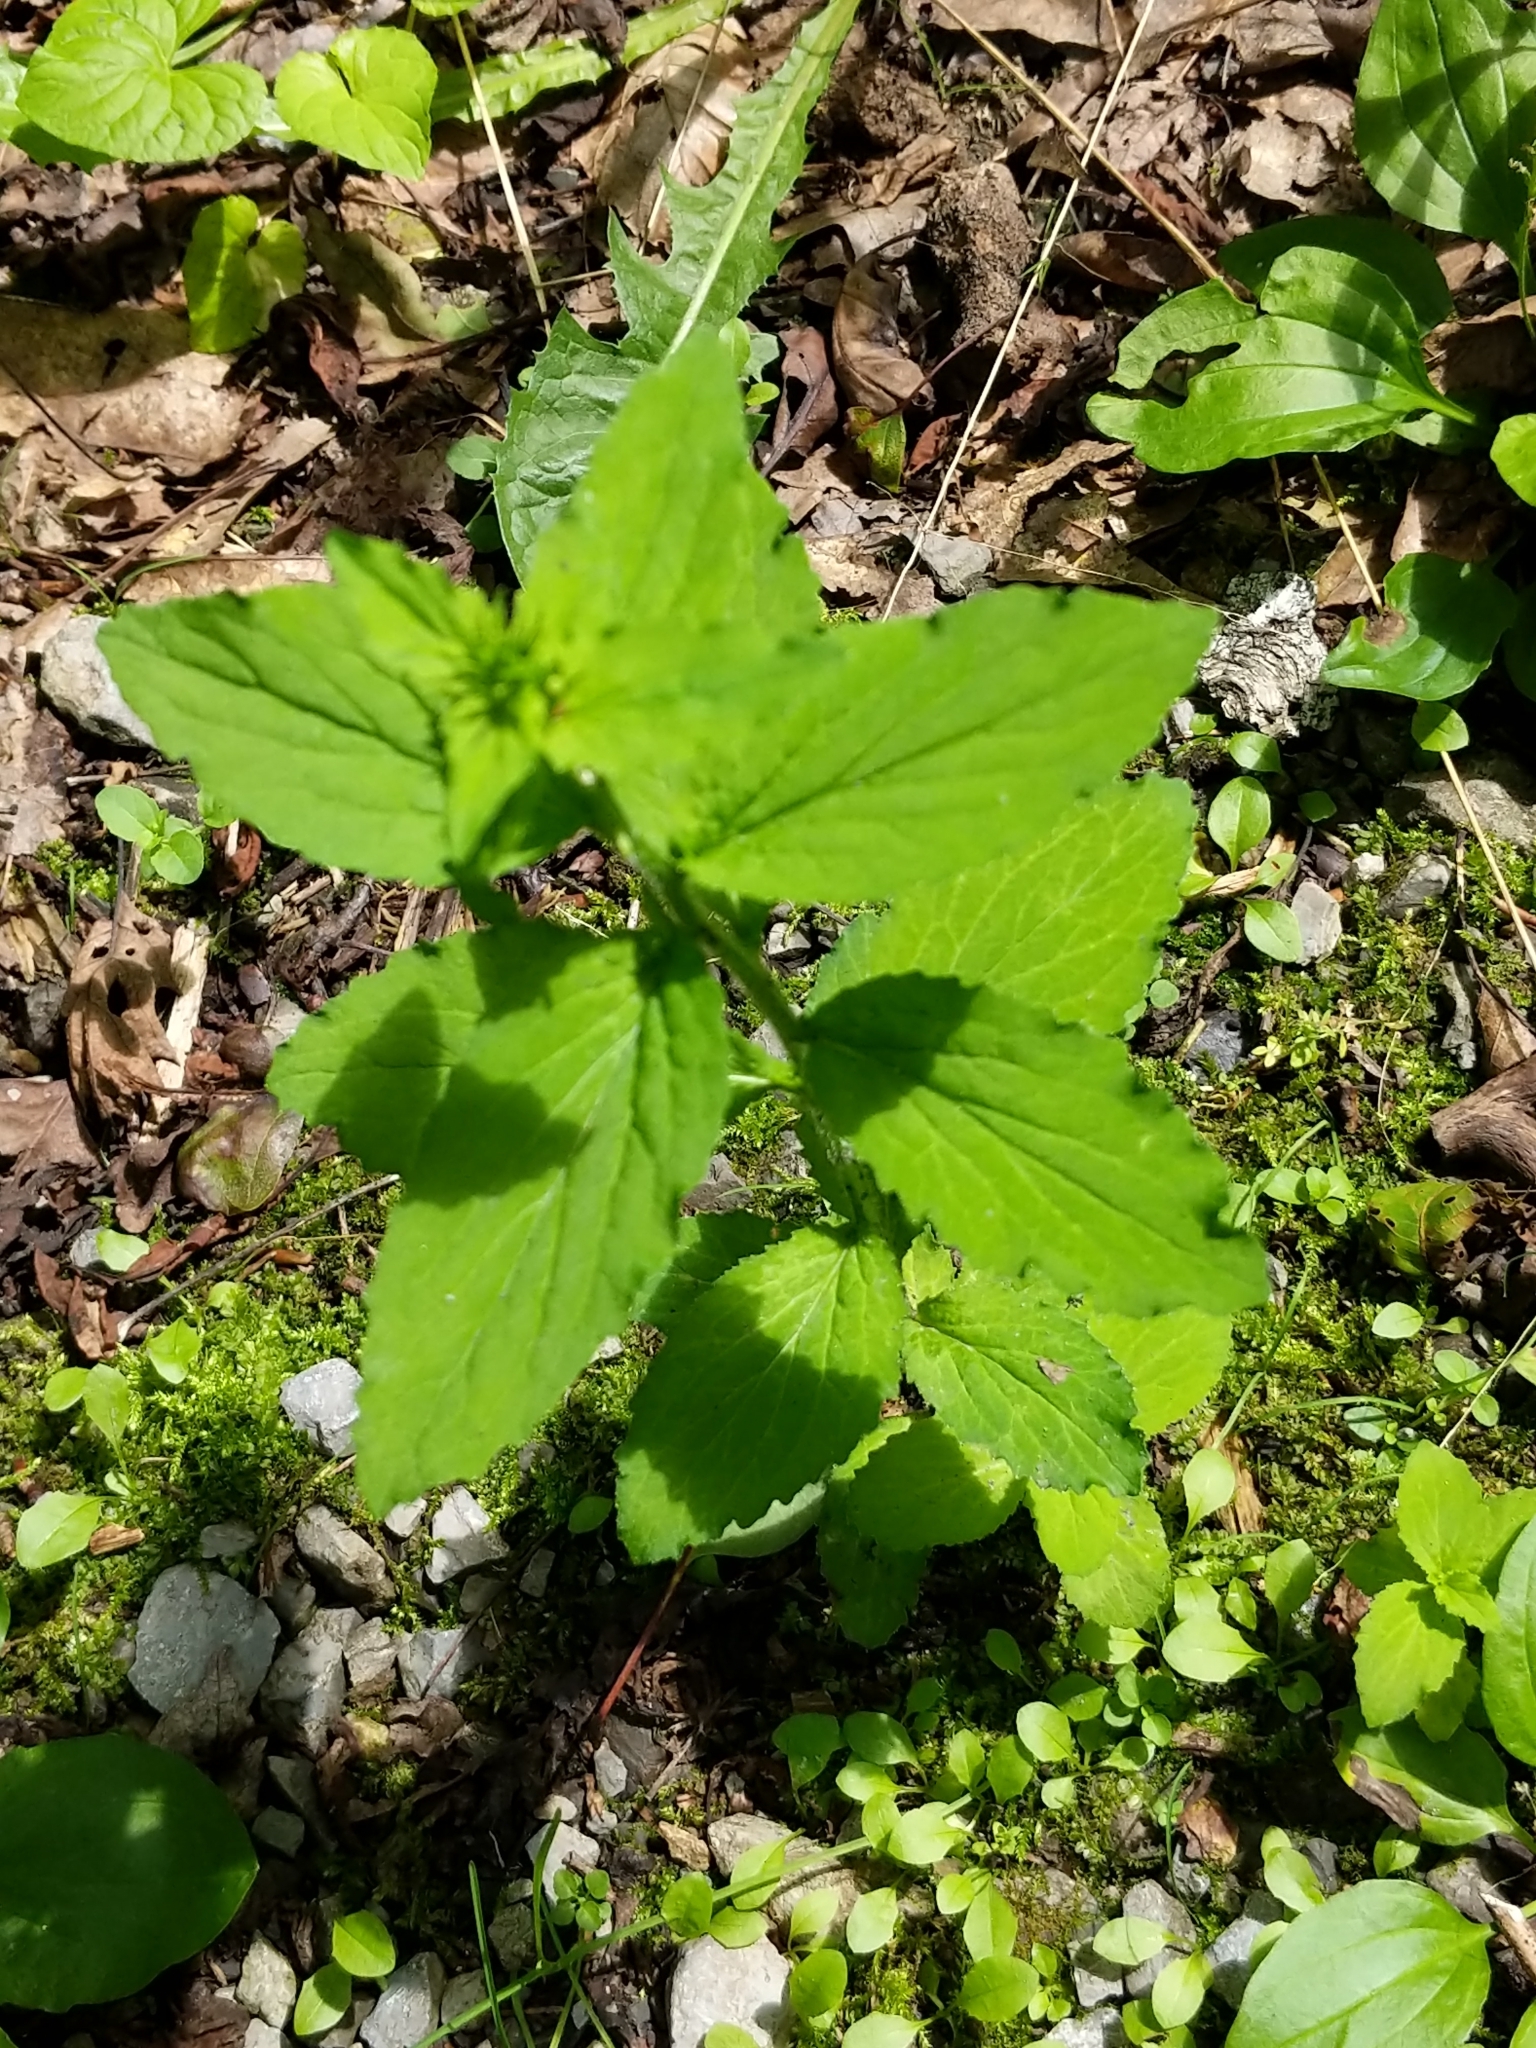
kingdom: Plantae
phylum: Tracheophyta
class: Magnoliopsida
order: Asterales
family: Campanulaceae
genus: Lobelia
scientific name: Lobelia inflata
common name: Indian tobacco
